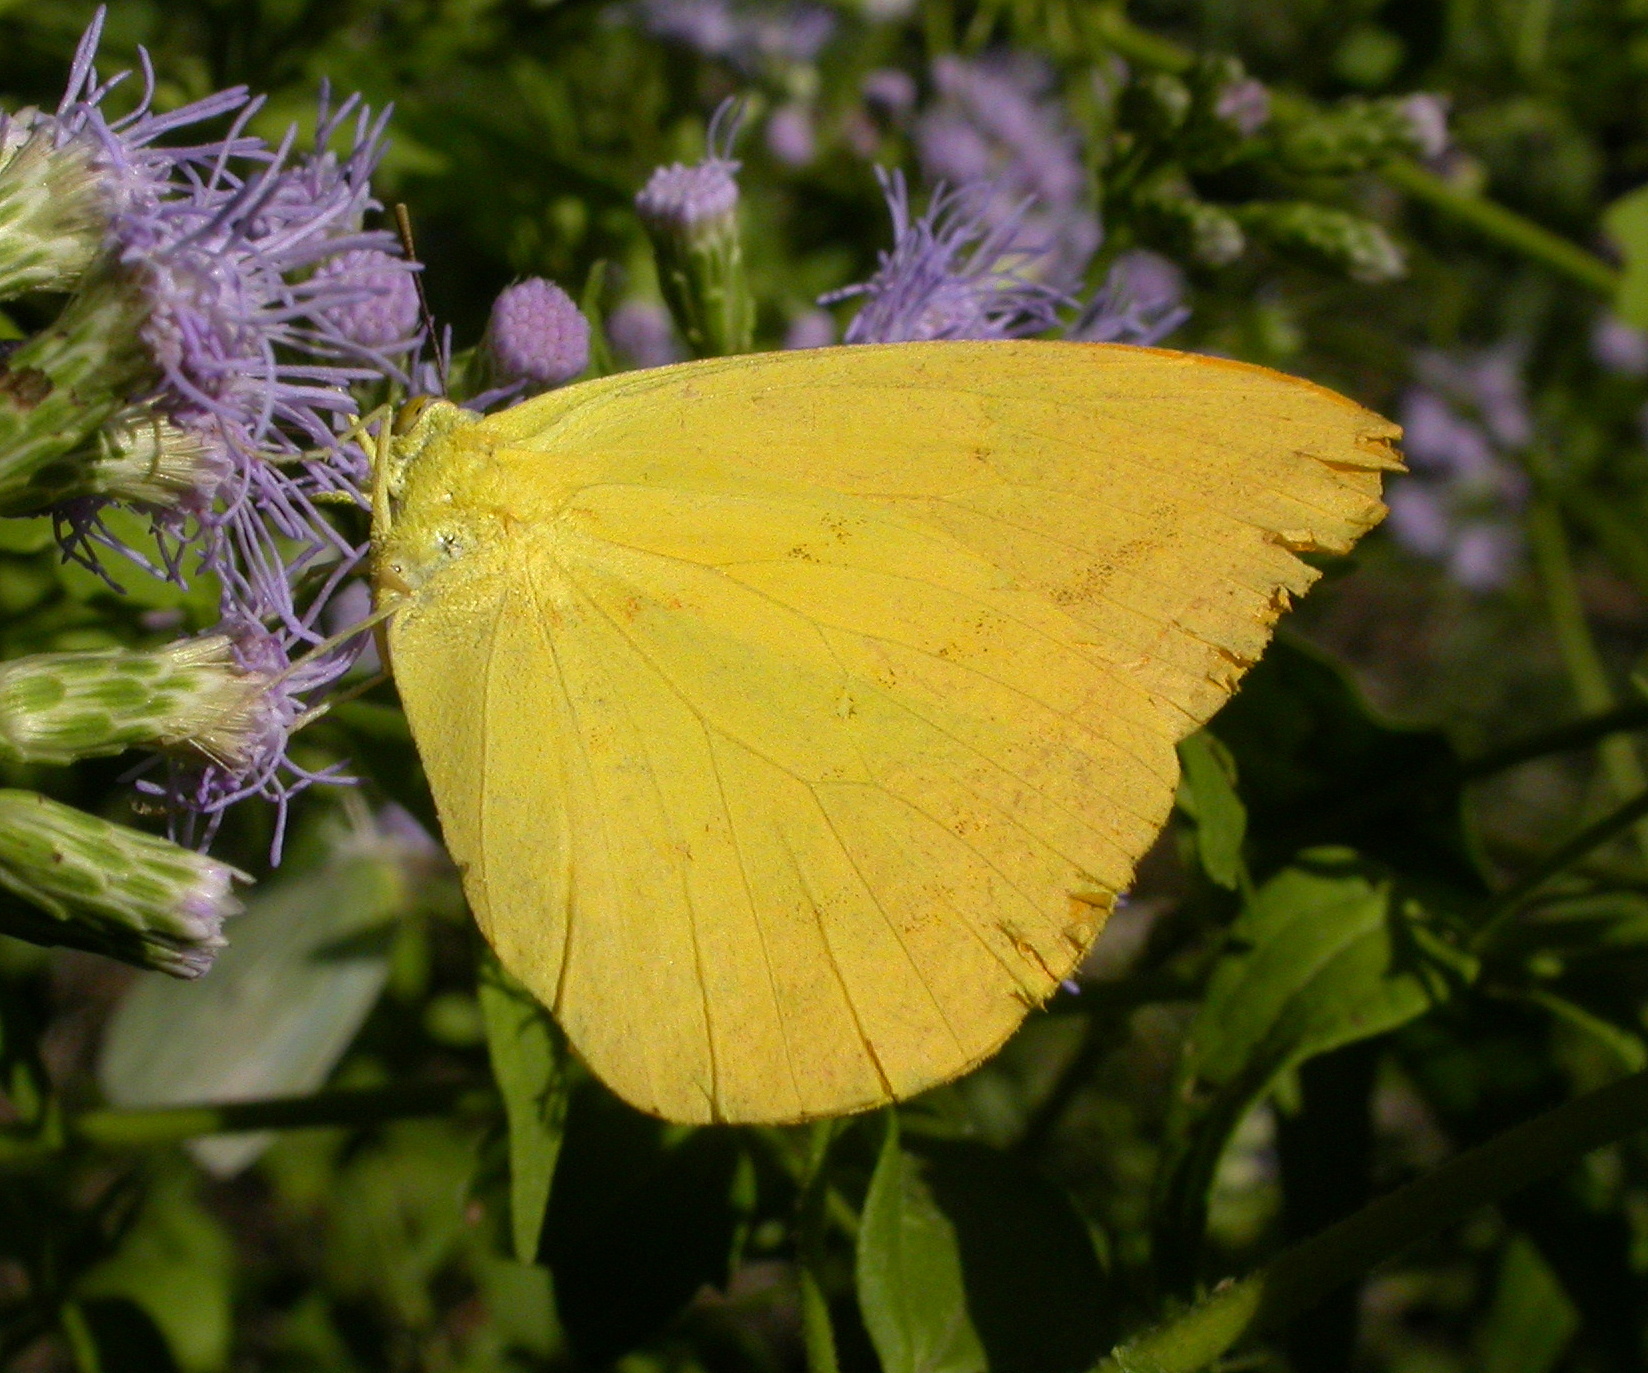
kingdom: Animalia
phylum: Arthropoda
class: Insecta
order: Lepidoptera
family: Pieridae
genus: Phoebis
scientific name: Phoebis agarithe
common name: Large orange sulphur
